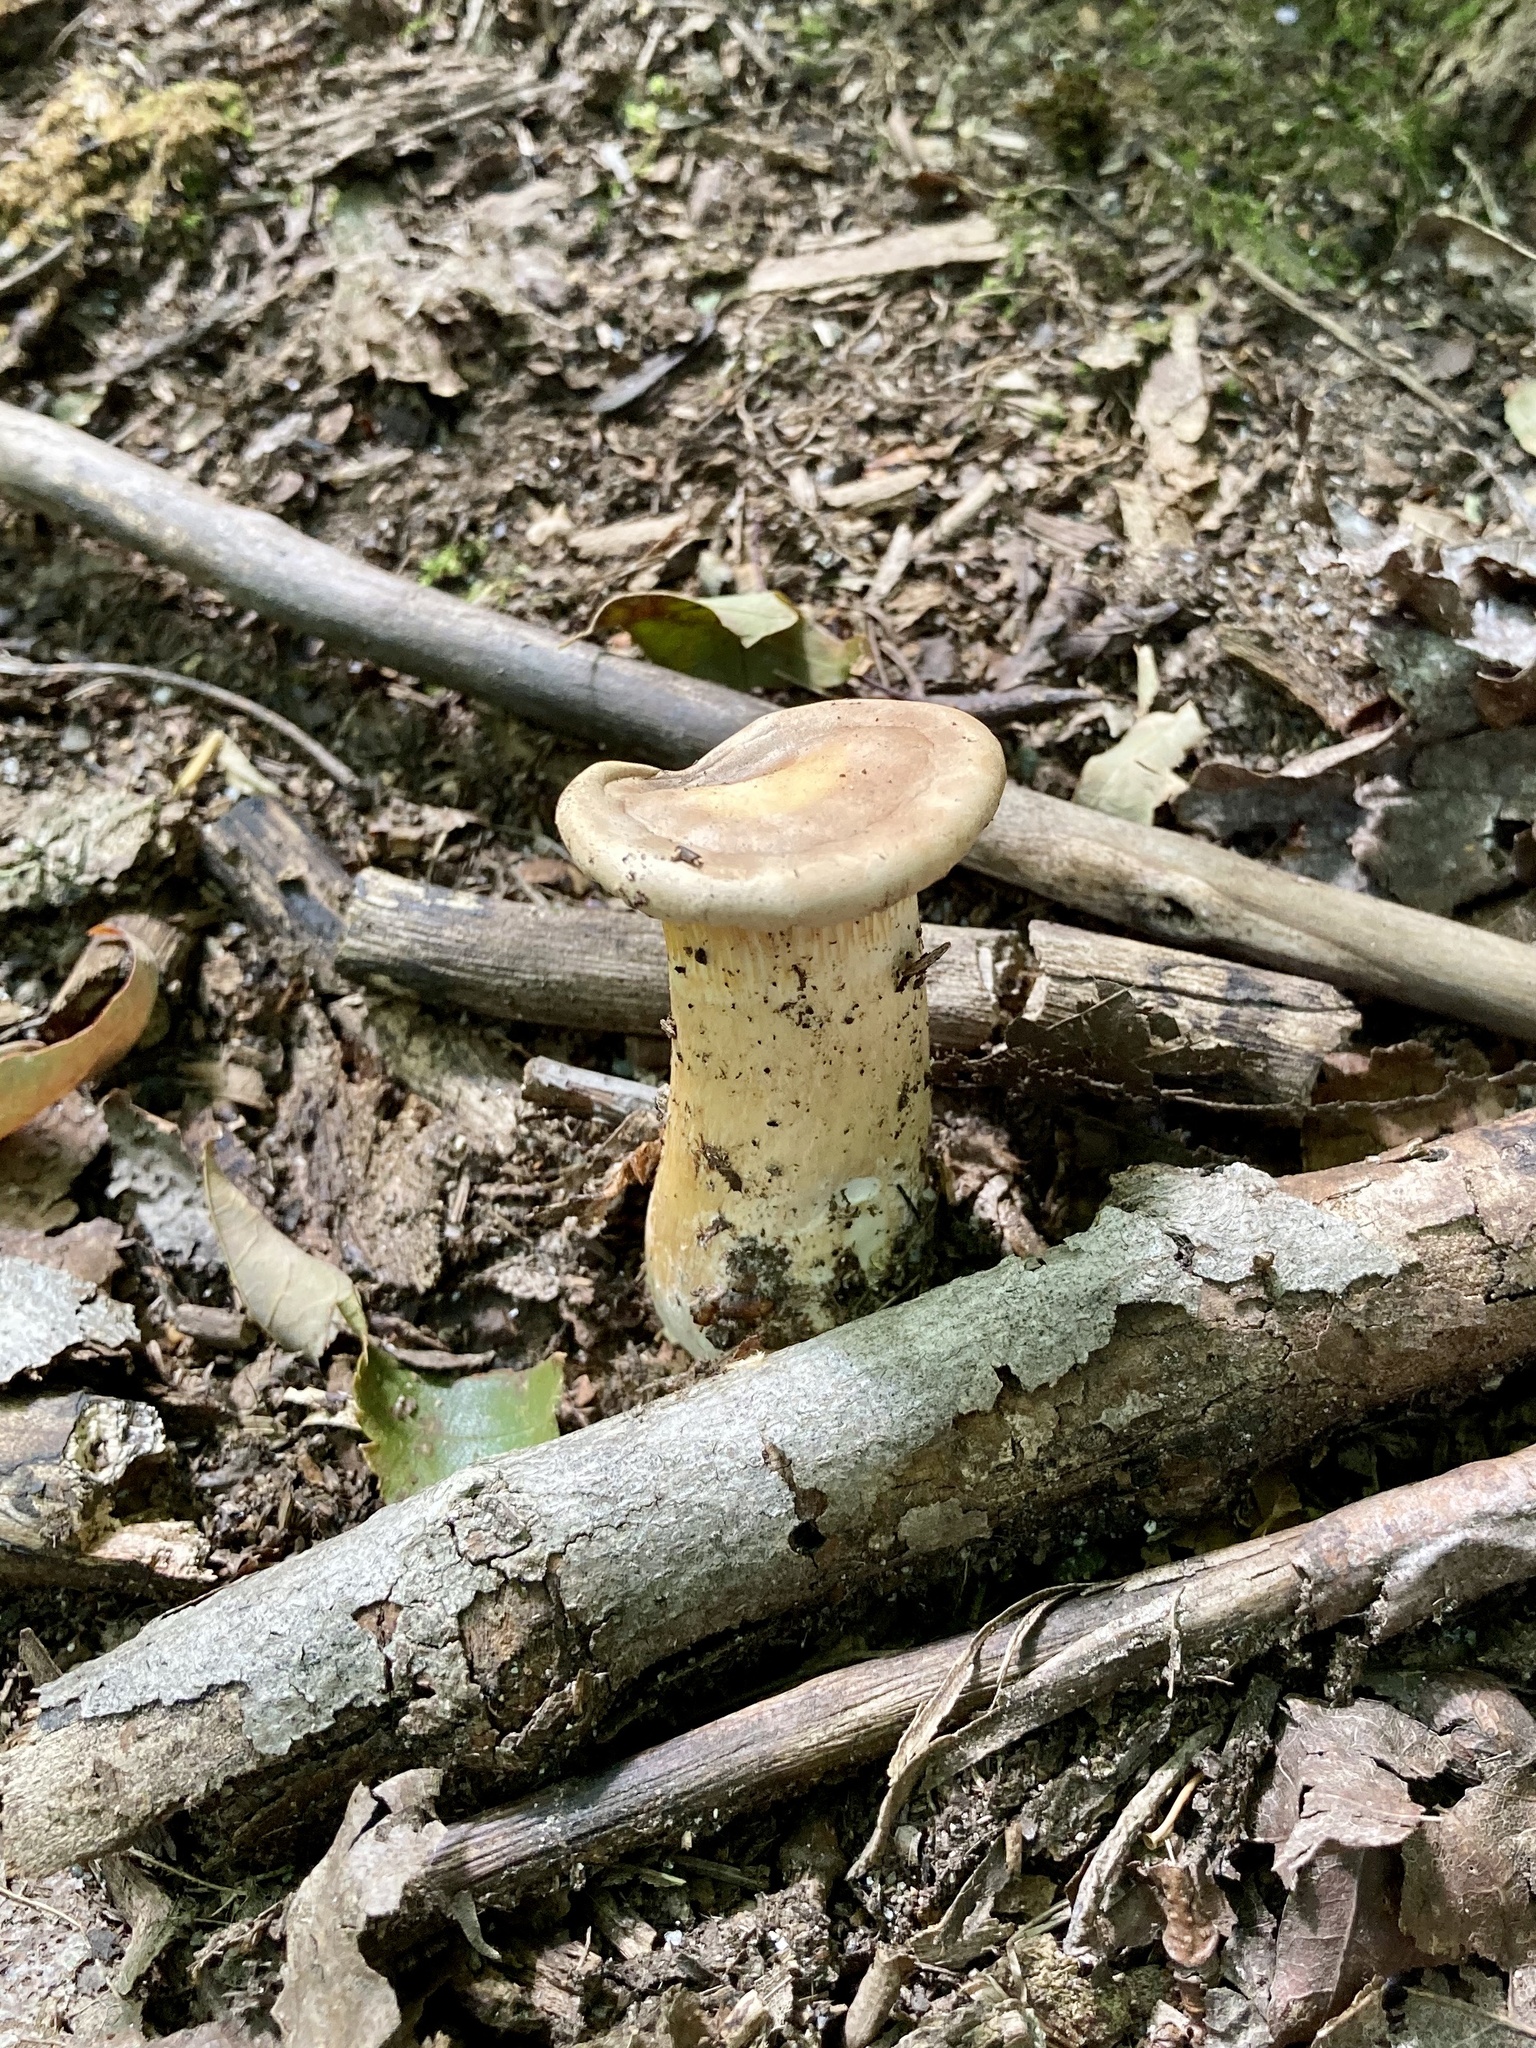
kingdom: Fungi
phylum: Basidiomycota
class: Agaricomycetes
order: Boletales
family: Tapinellaceae
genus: Tapinella
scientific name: Tapinella atrotomentosa
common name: Velvet rollrim
